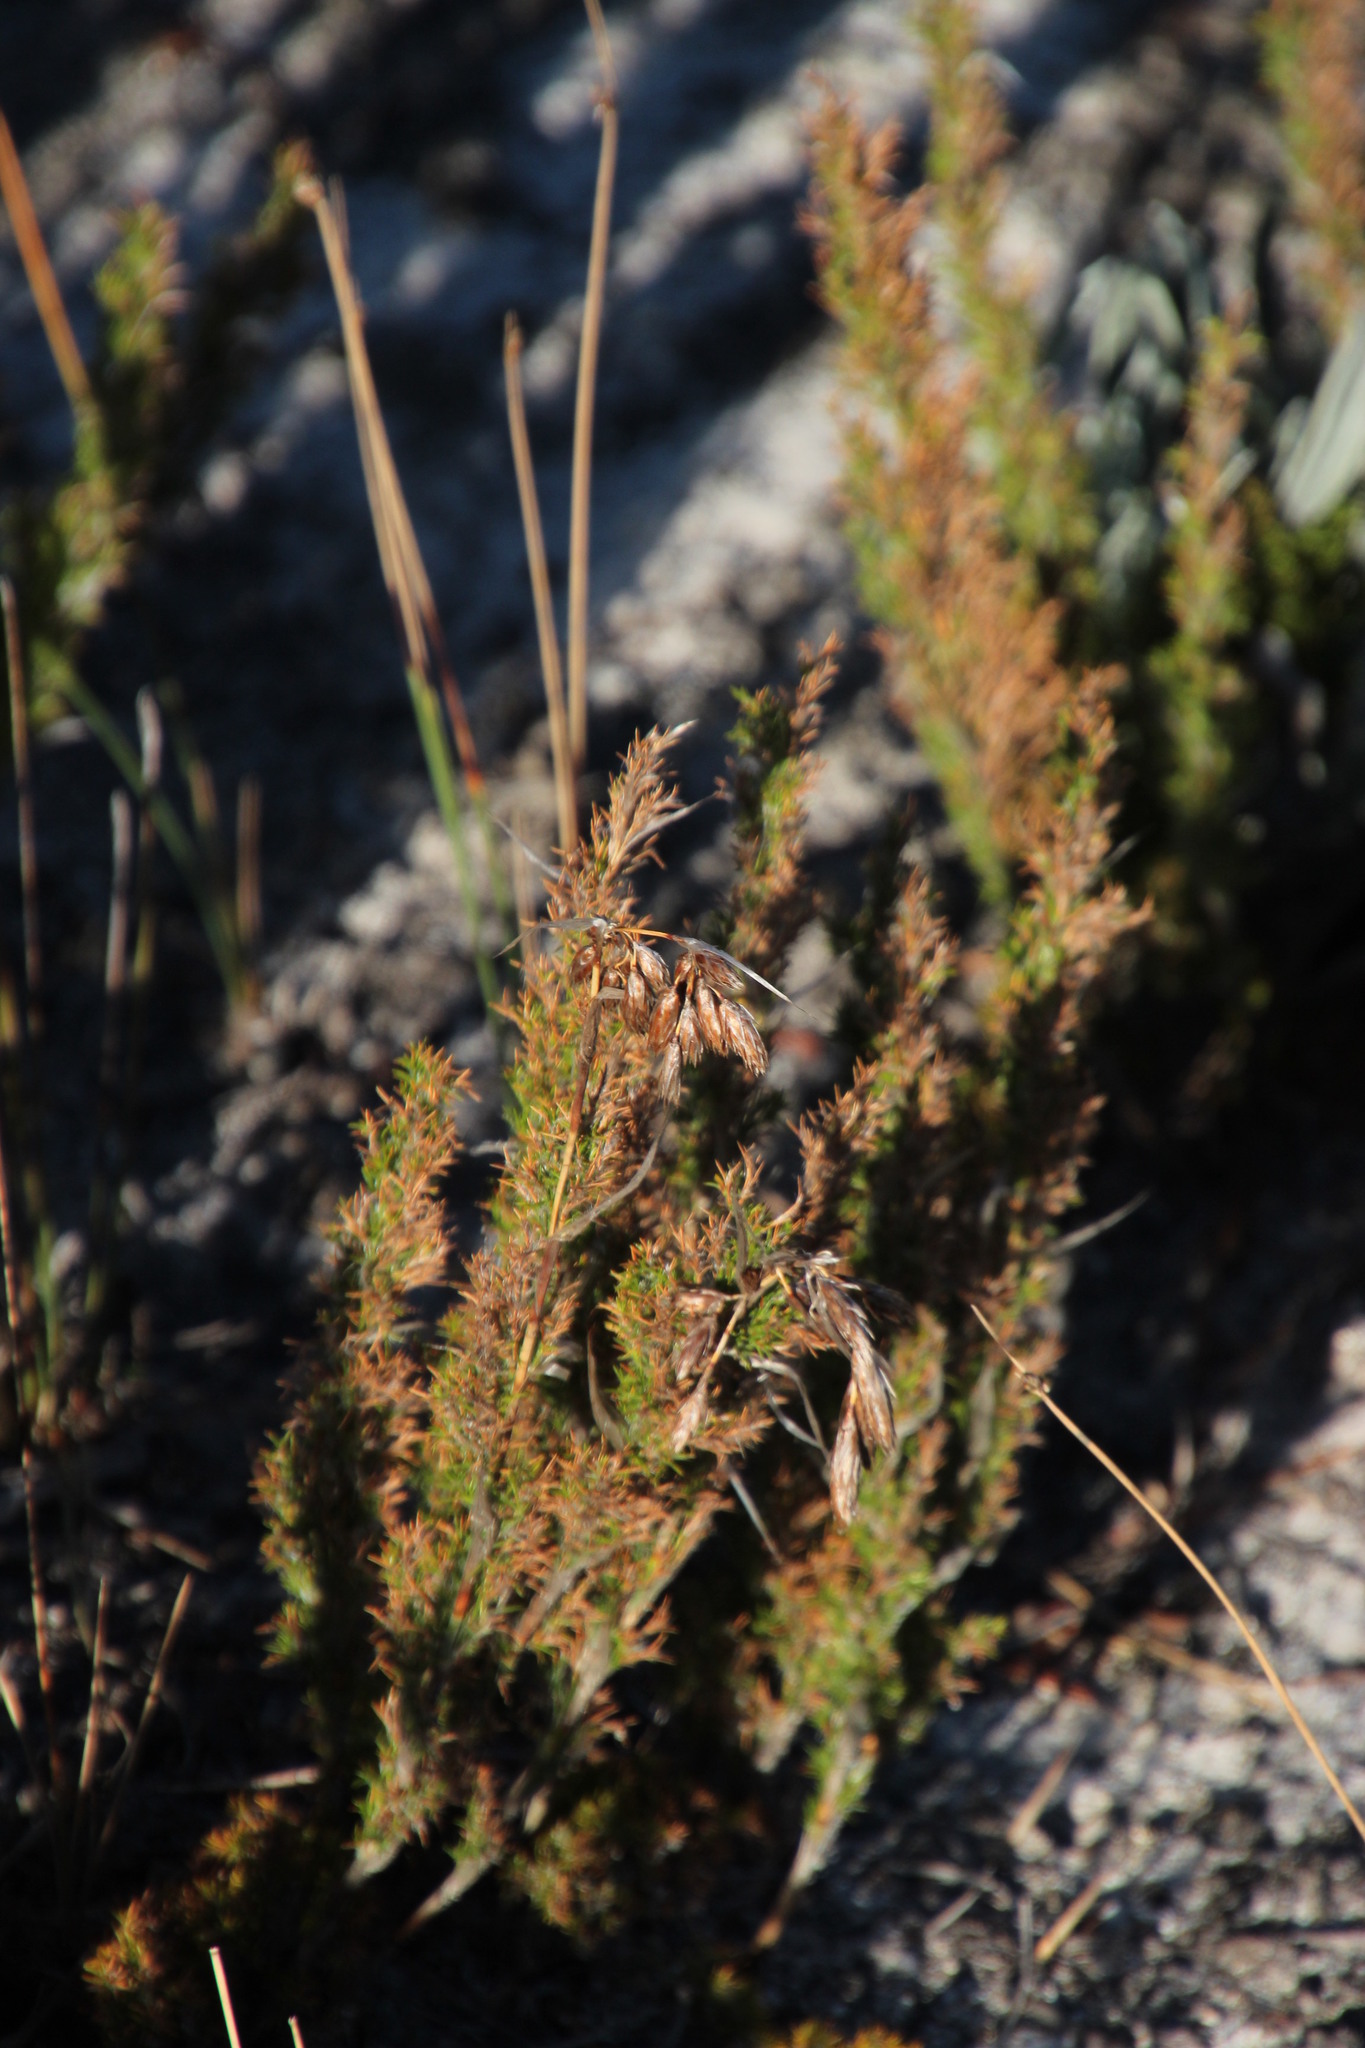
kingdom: Plantae
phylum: Tracheophyta
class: Liliopsida
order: Poales
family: Restionaceae
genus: Thamnochortus
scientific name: Thamnochortus fruticosus
